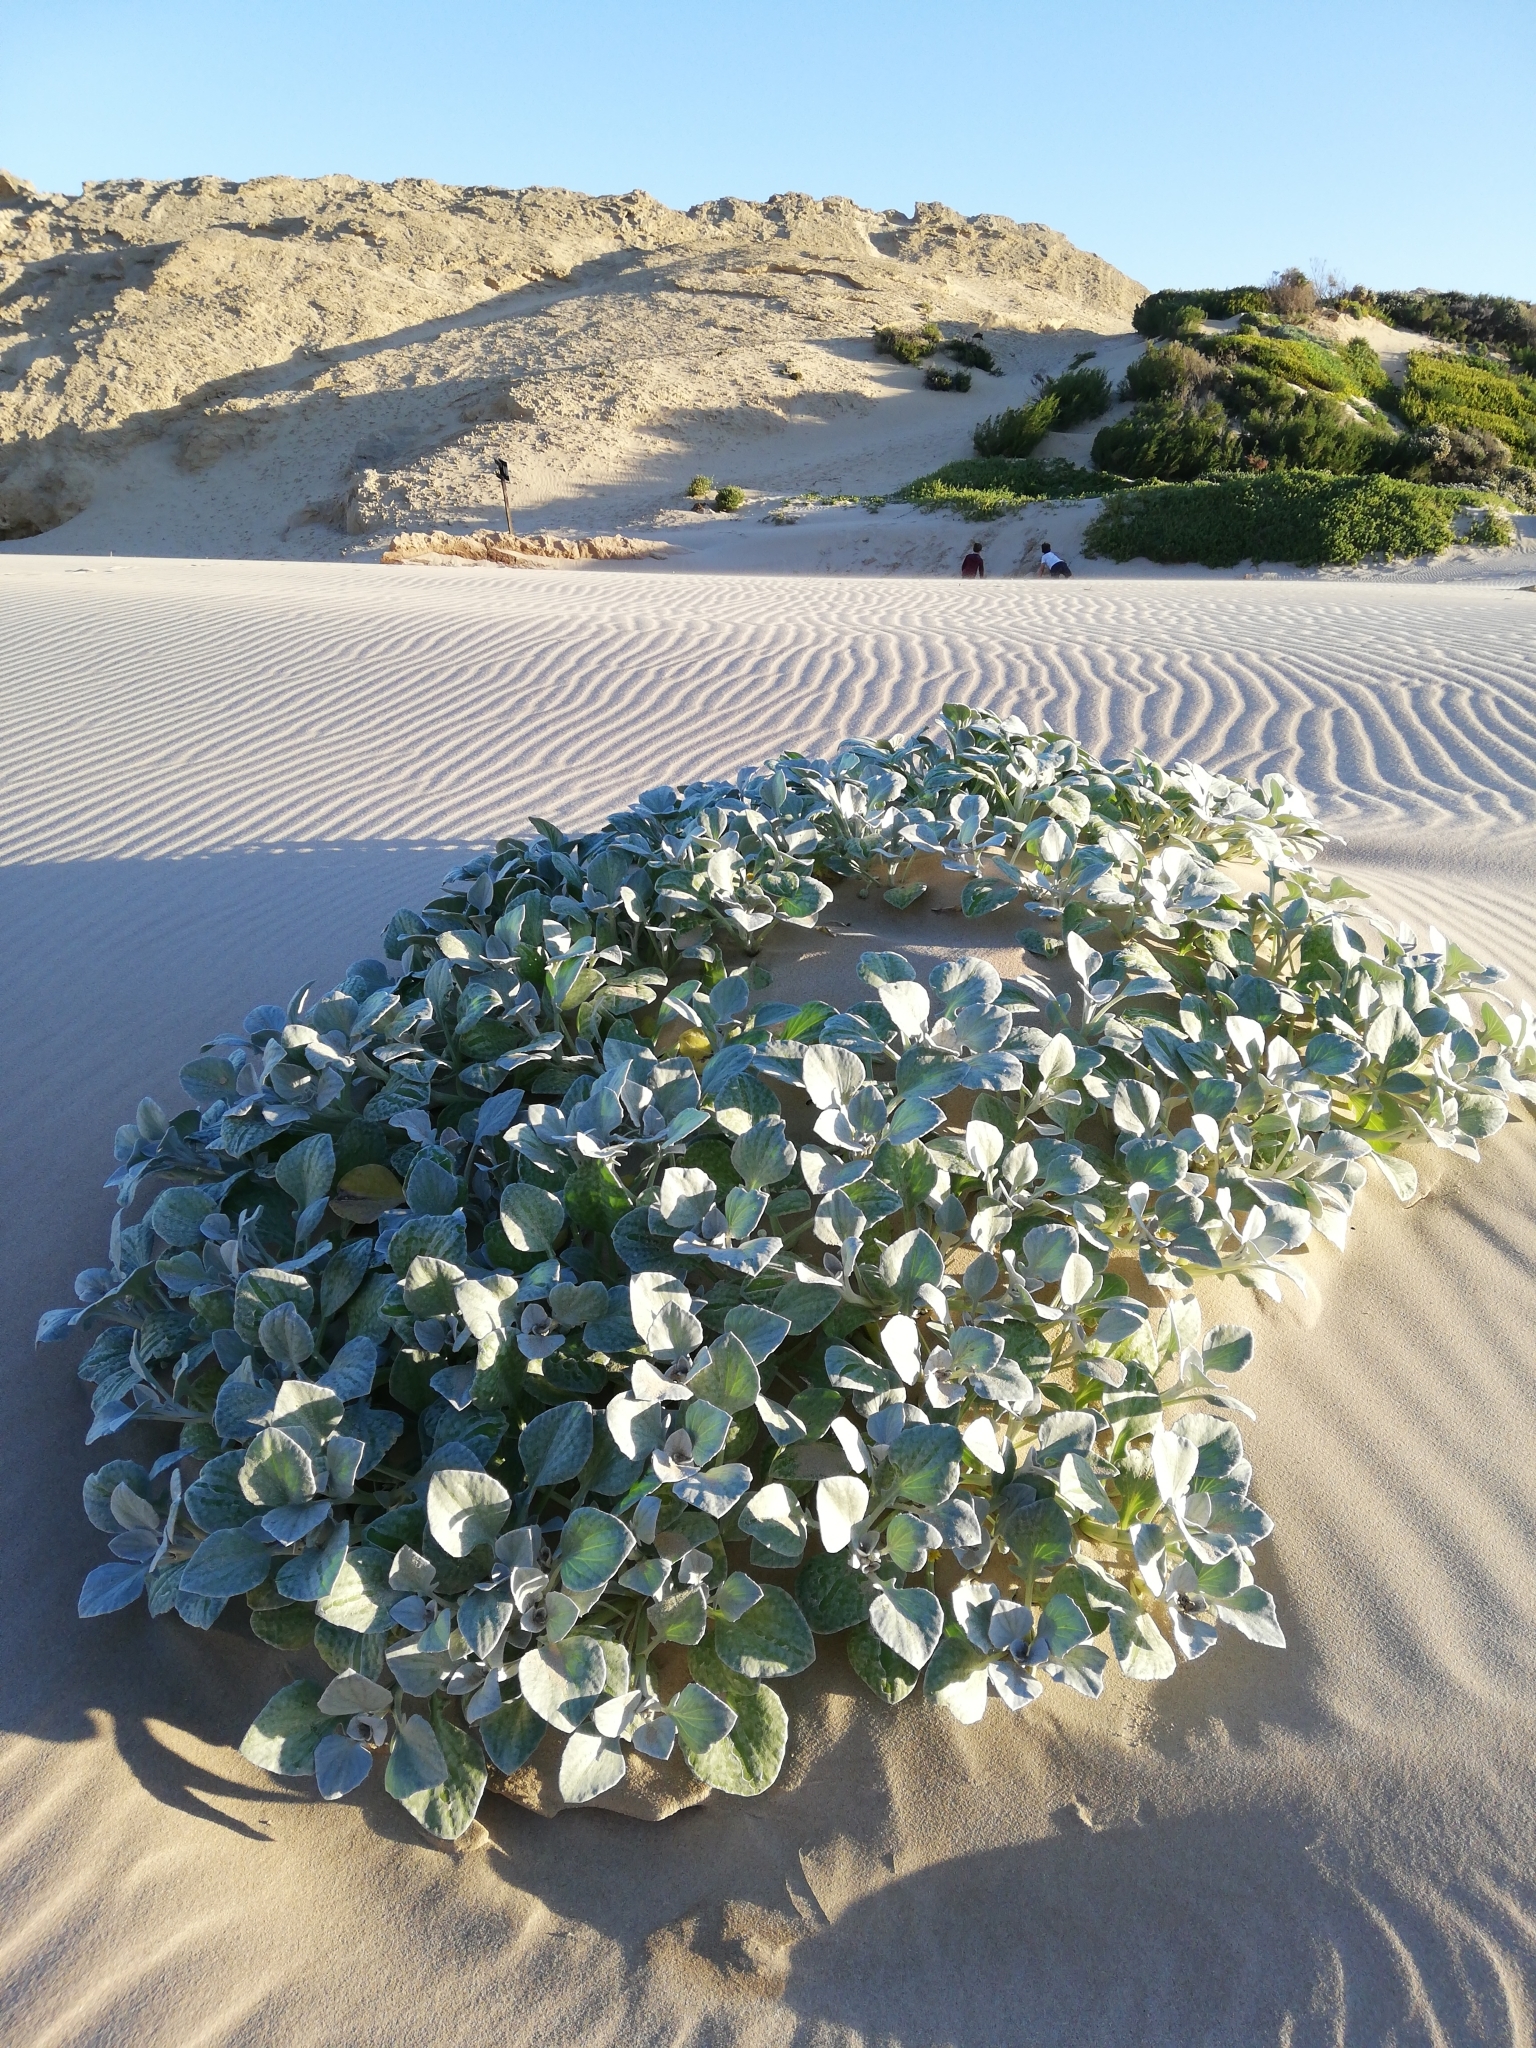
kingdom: Plantae
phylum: Tracheophyta
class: Magnoliopsida
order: Asterales
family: Asteraceae
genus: Arctotheca
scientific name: Arctotheca populifolia
